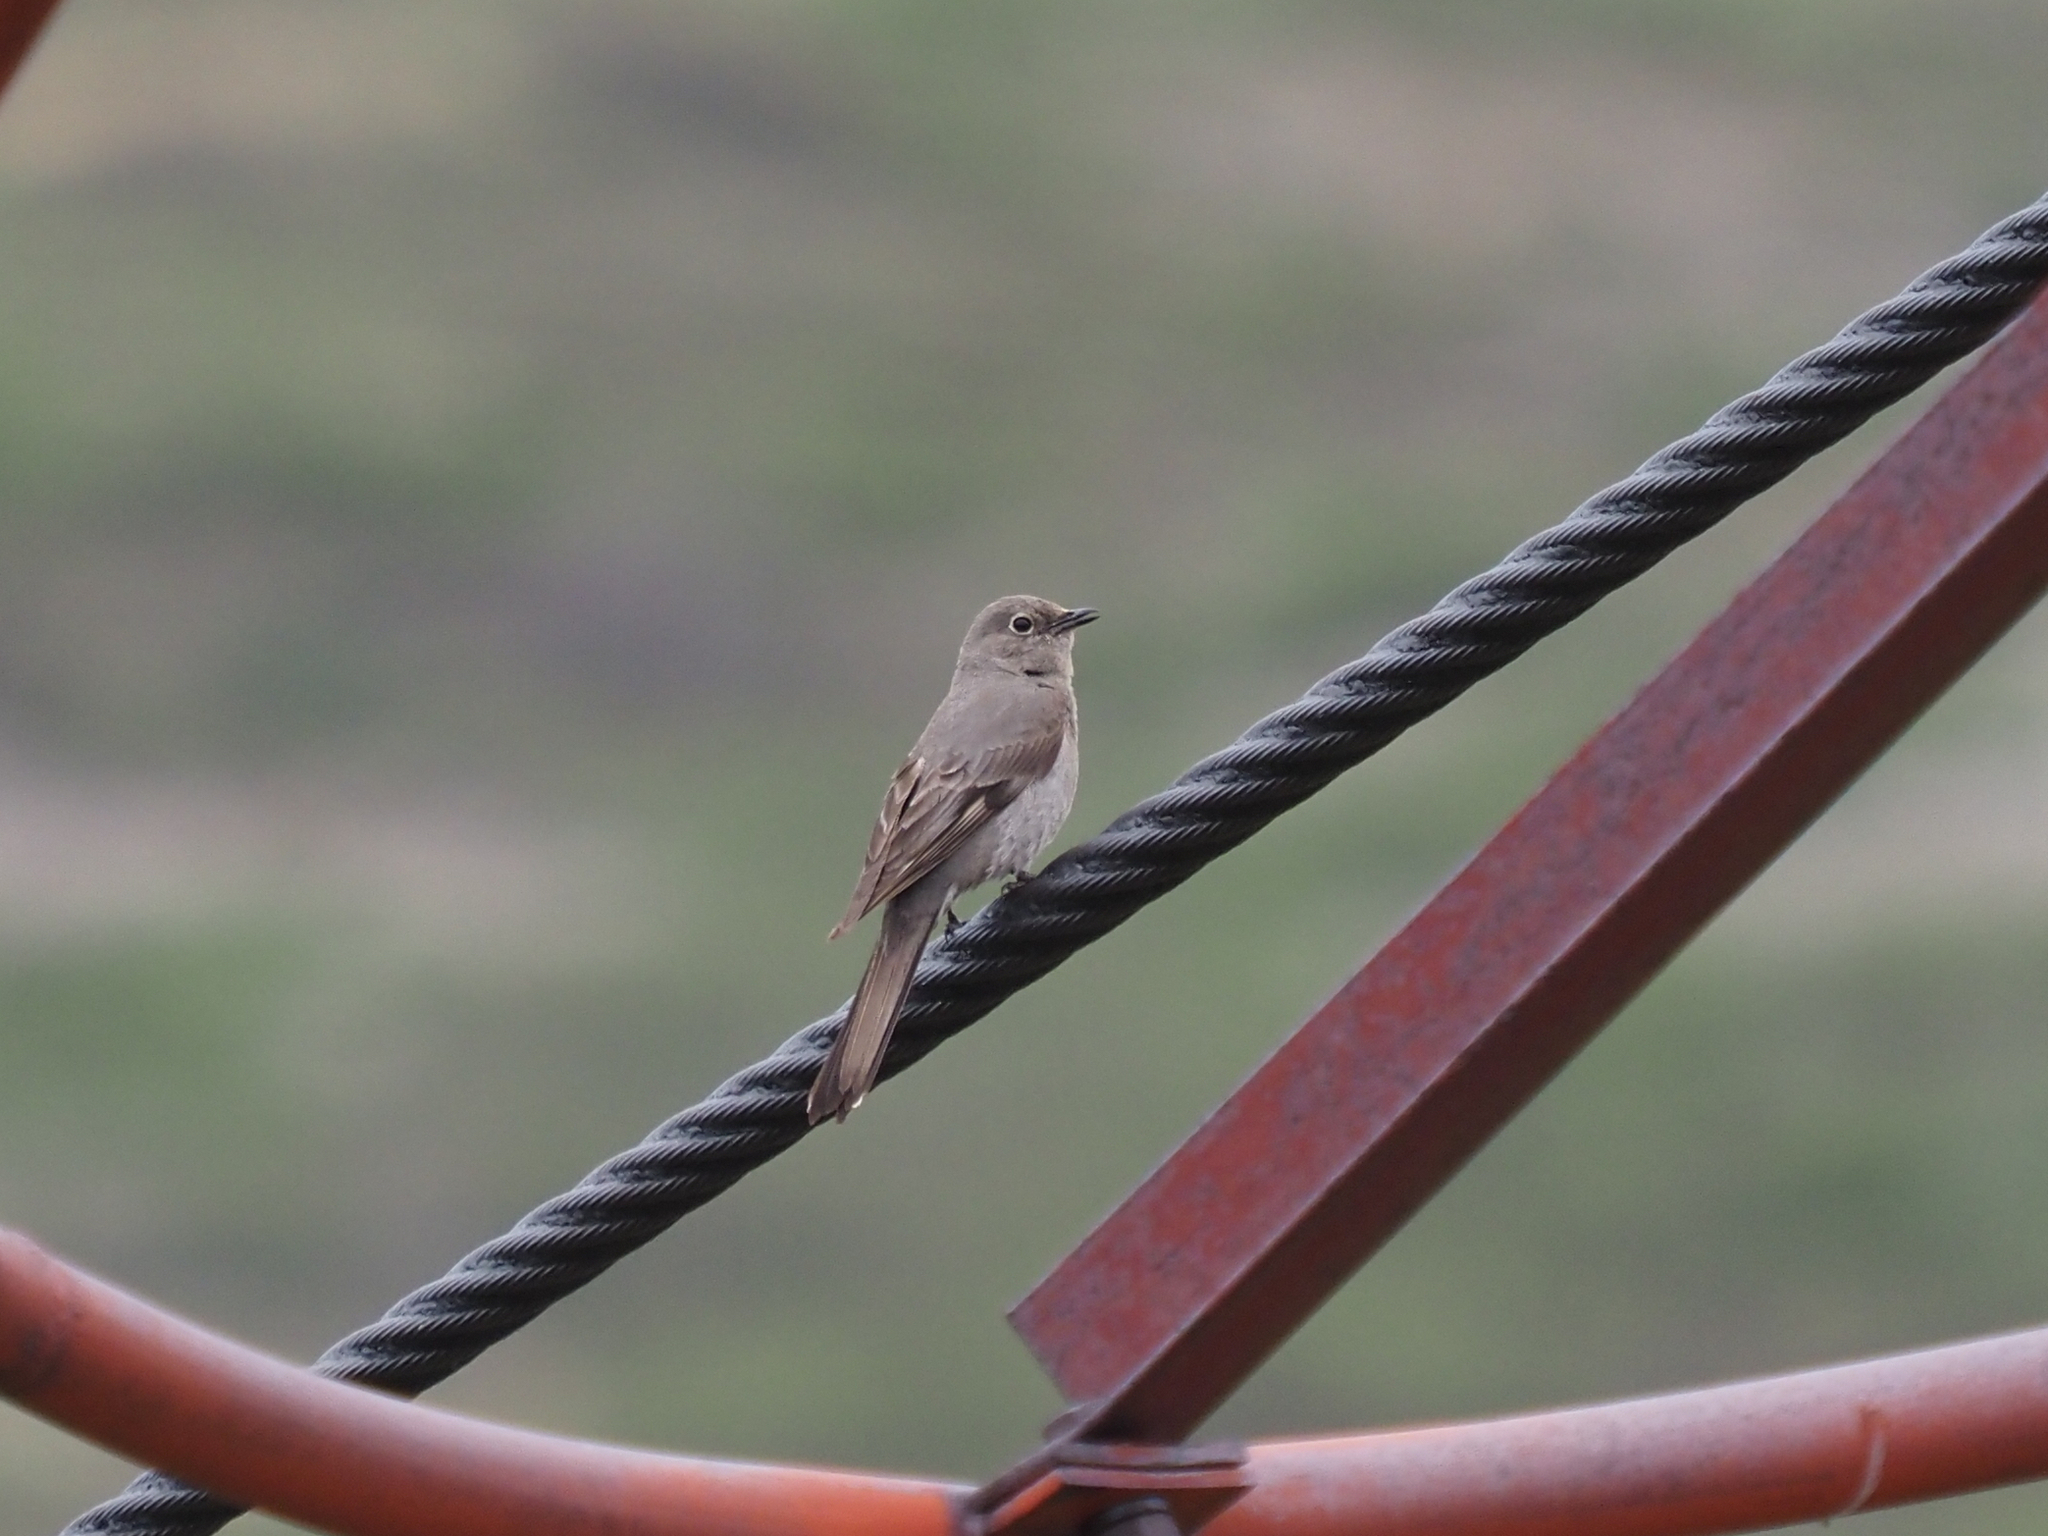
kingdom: Animalia
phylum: Chordata
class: Aves
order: Passeriformes
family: Turdidae
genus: Myadestes
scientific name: Myadestes townsendi
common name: Townsend's solitaire
